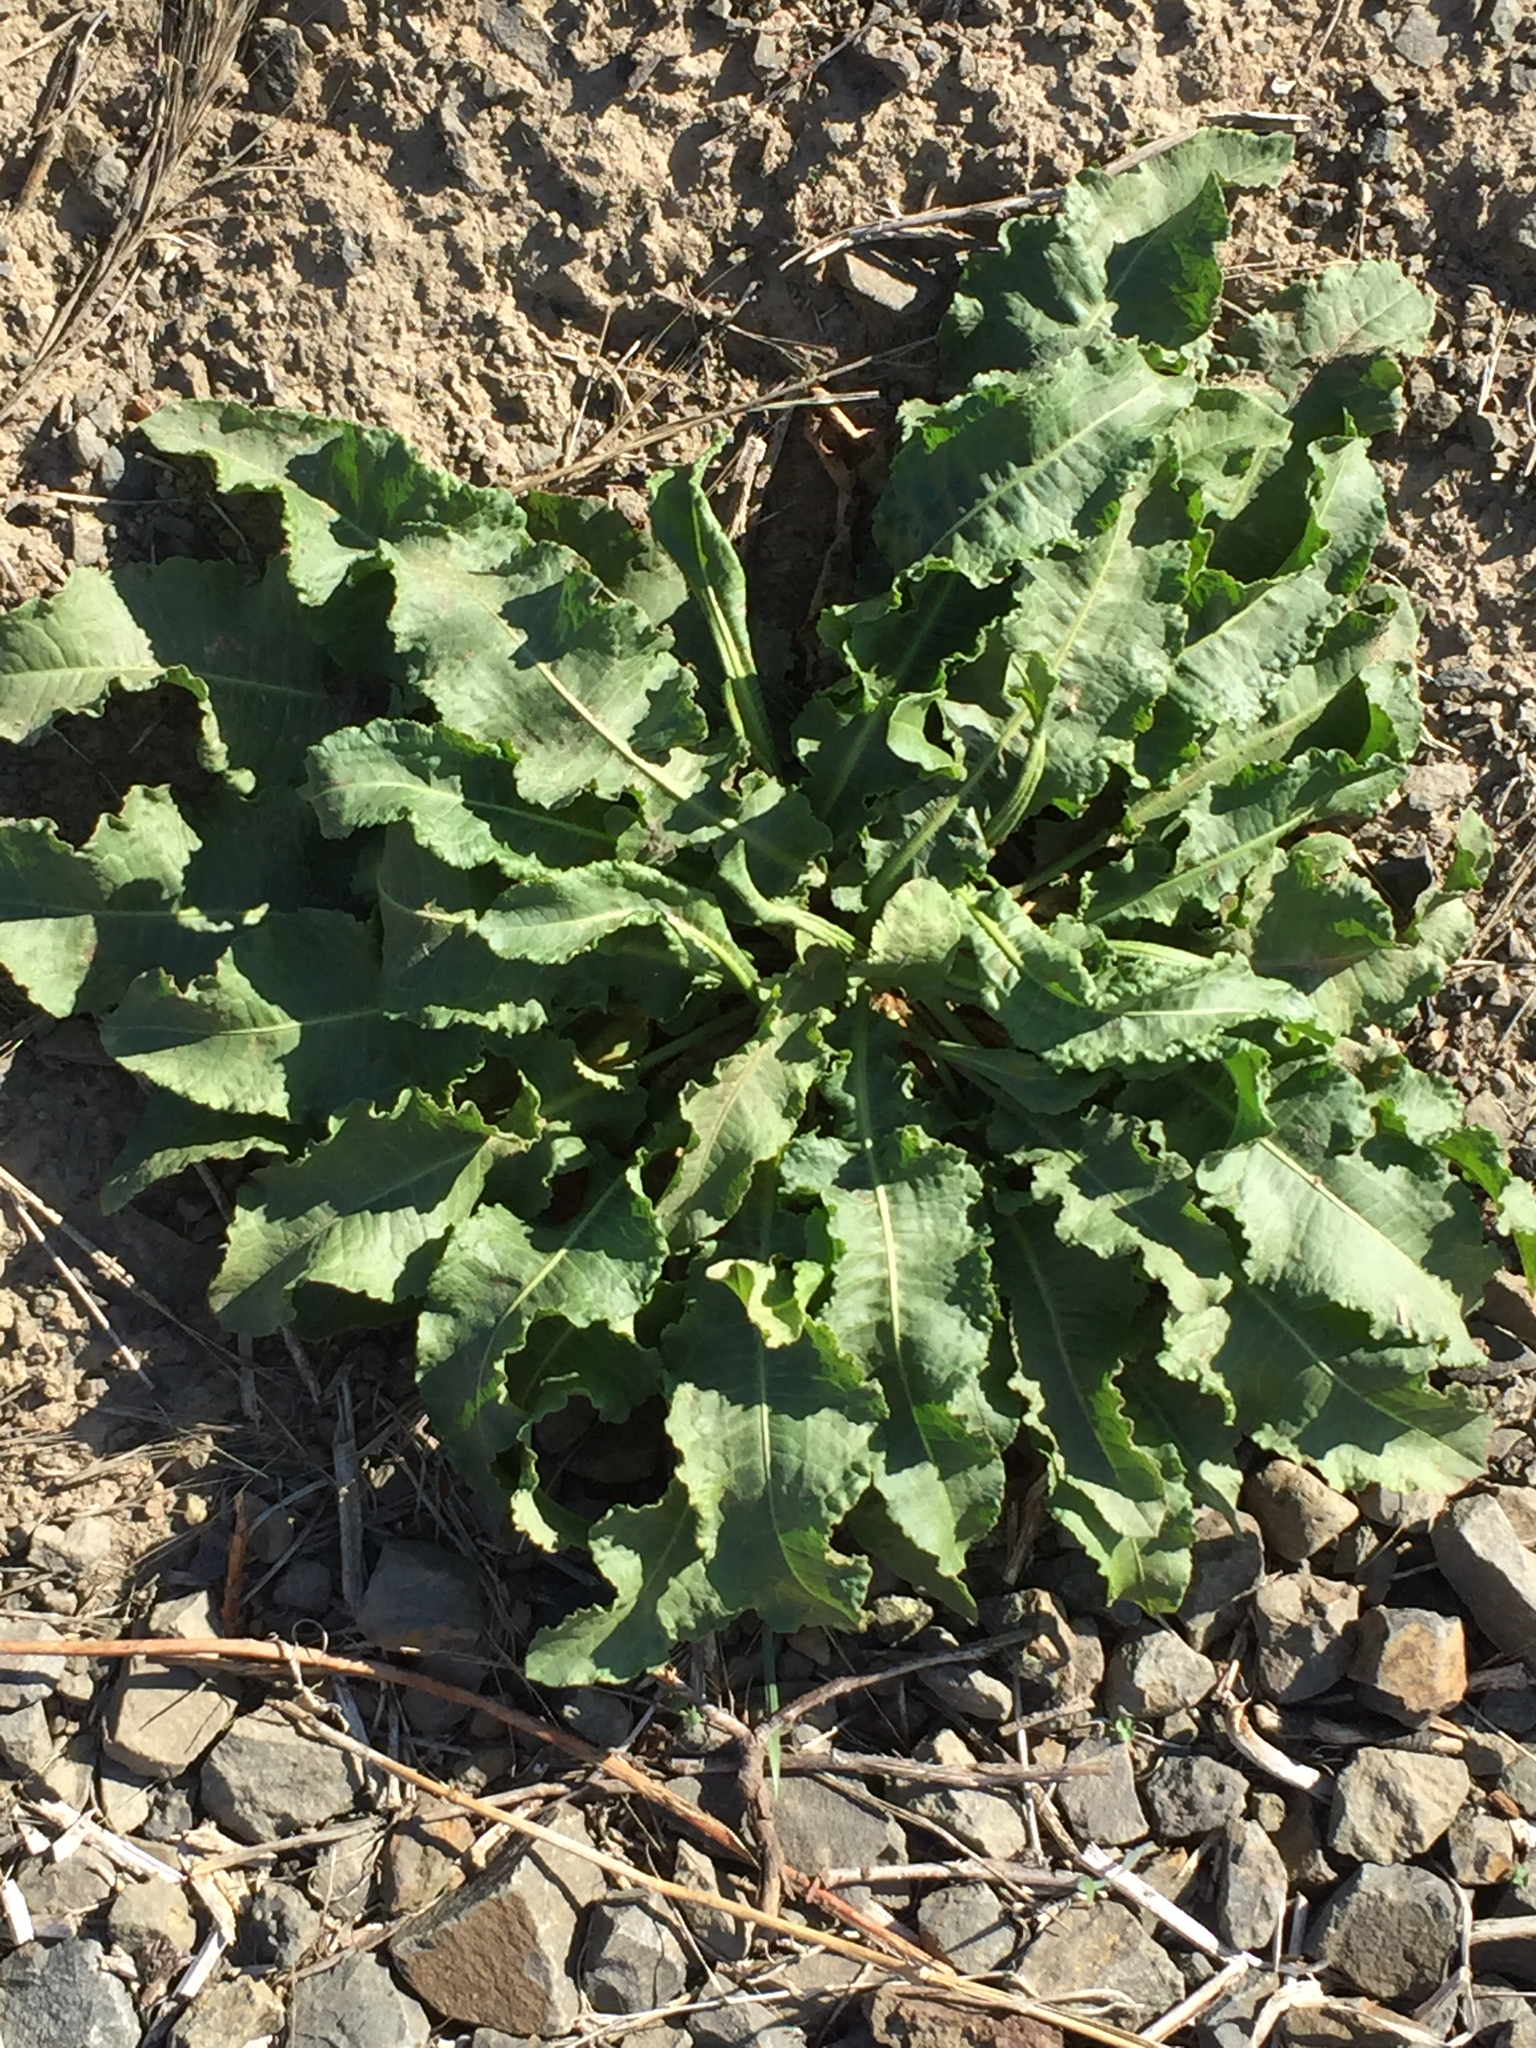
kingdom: Plantae
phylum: Tracheophyta
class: Magnoliopsida
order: Caryophyllales
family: Polygonaceae
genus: Rumex
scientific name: Rumex crispus
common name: Curled dock
